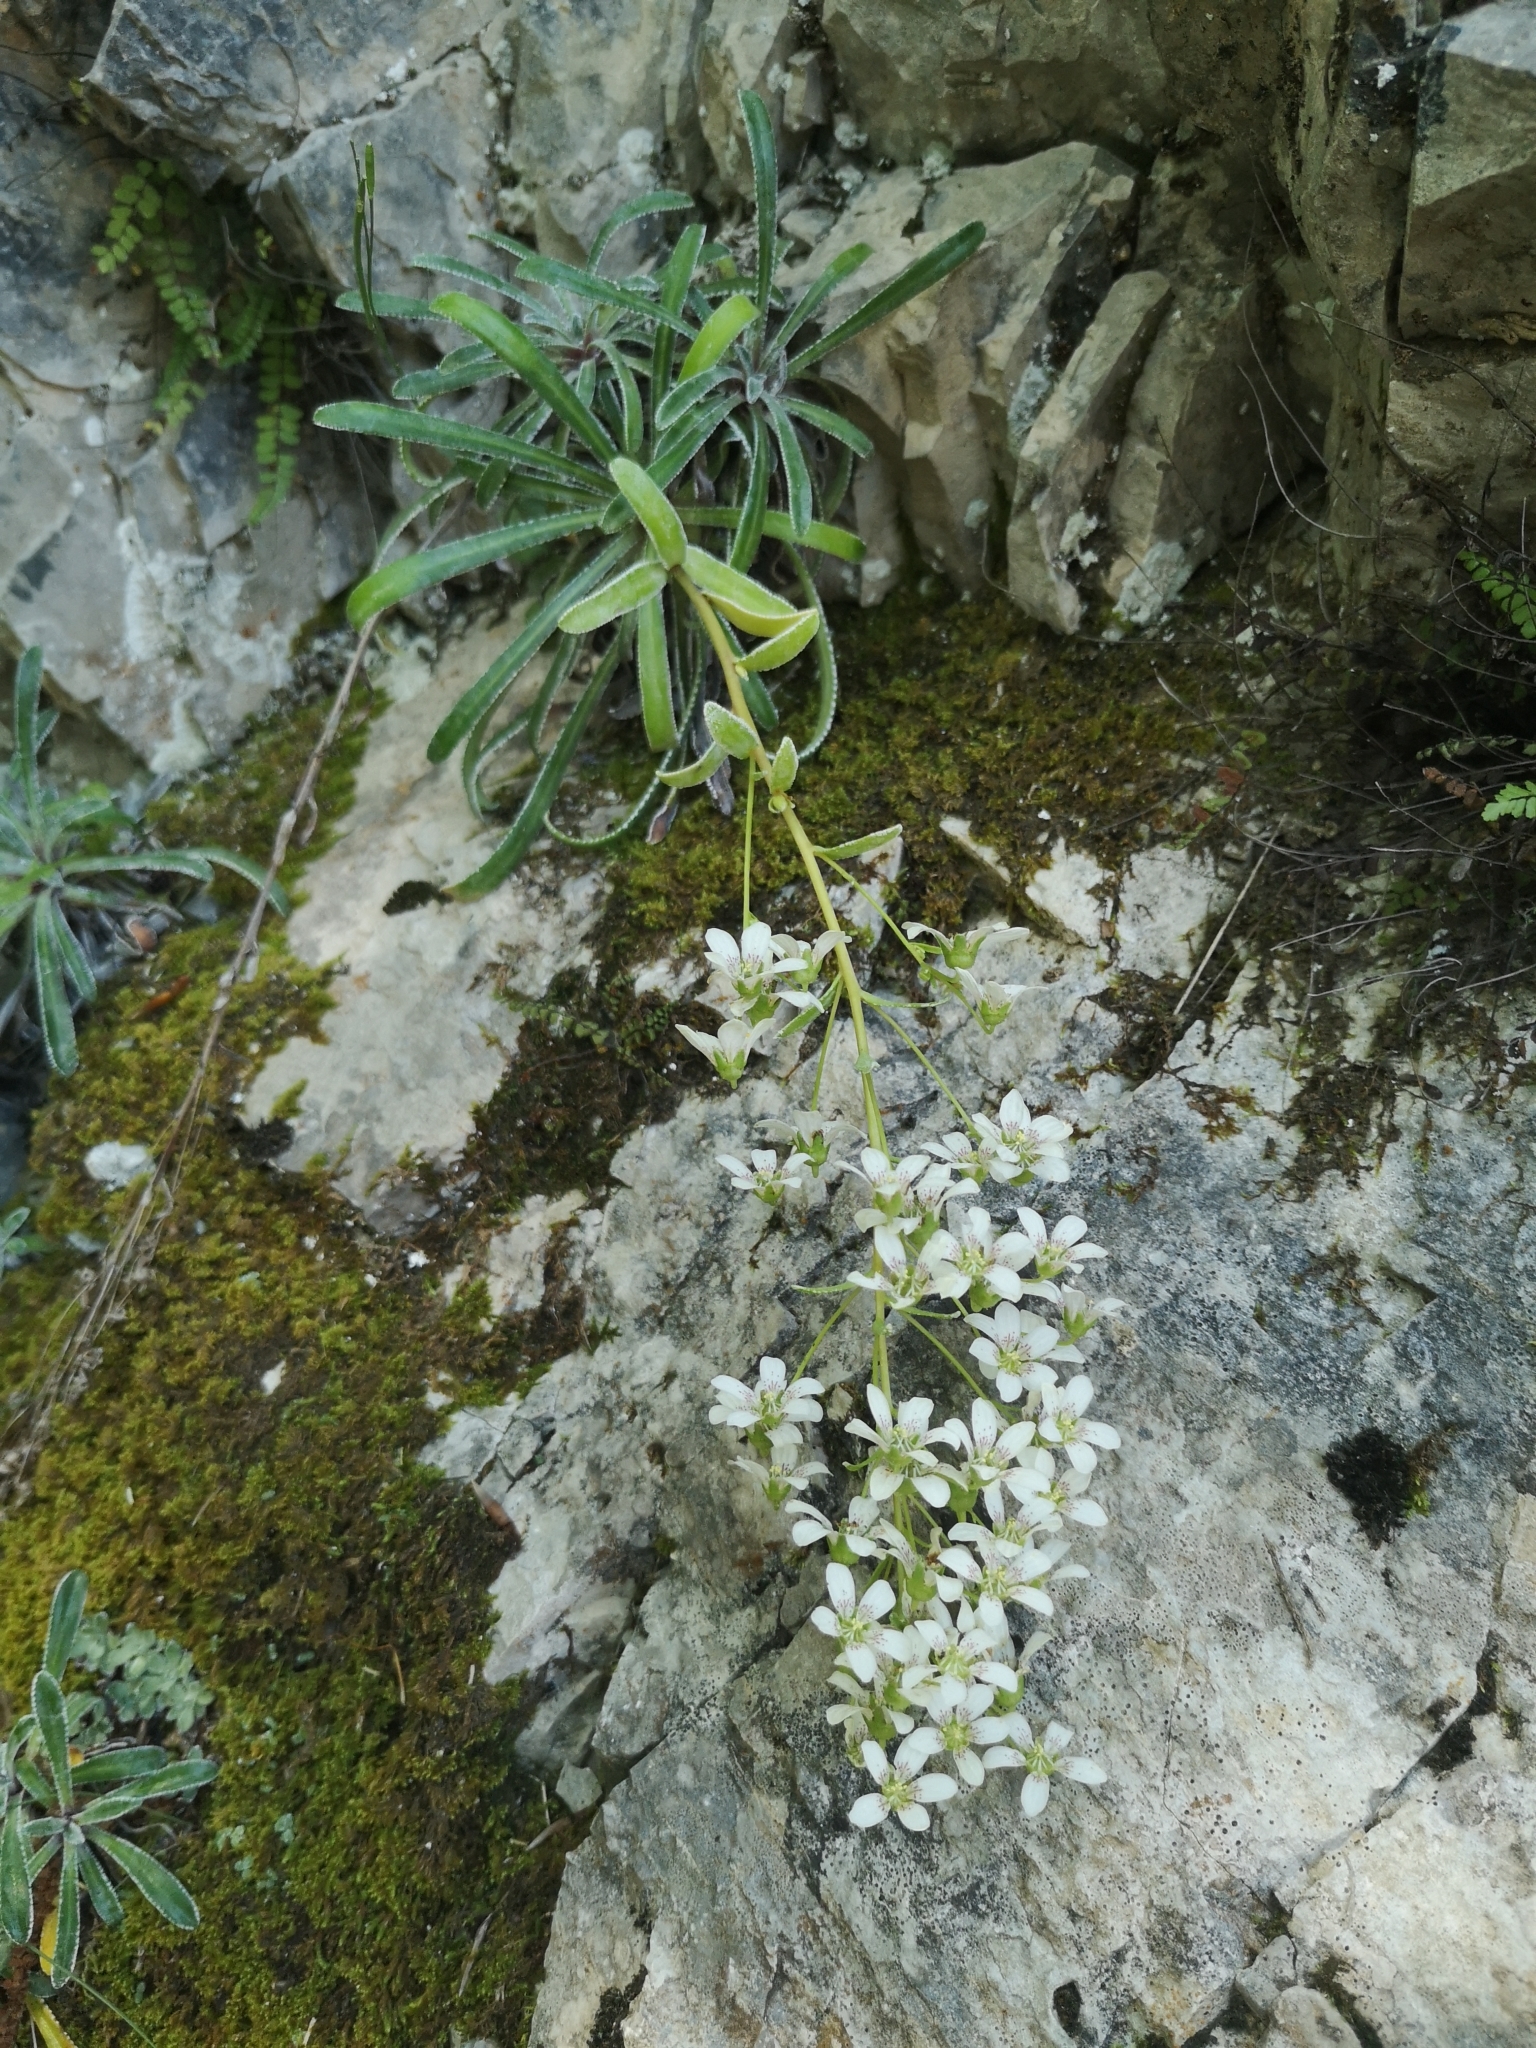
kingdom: Plantae
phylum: Tracheophyta
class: Magnoliopsida
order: Saxifragales
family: Saxifragaceae
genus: Saxifraga
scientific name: Saxifraga callosa
